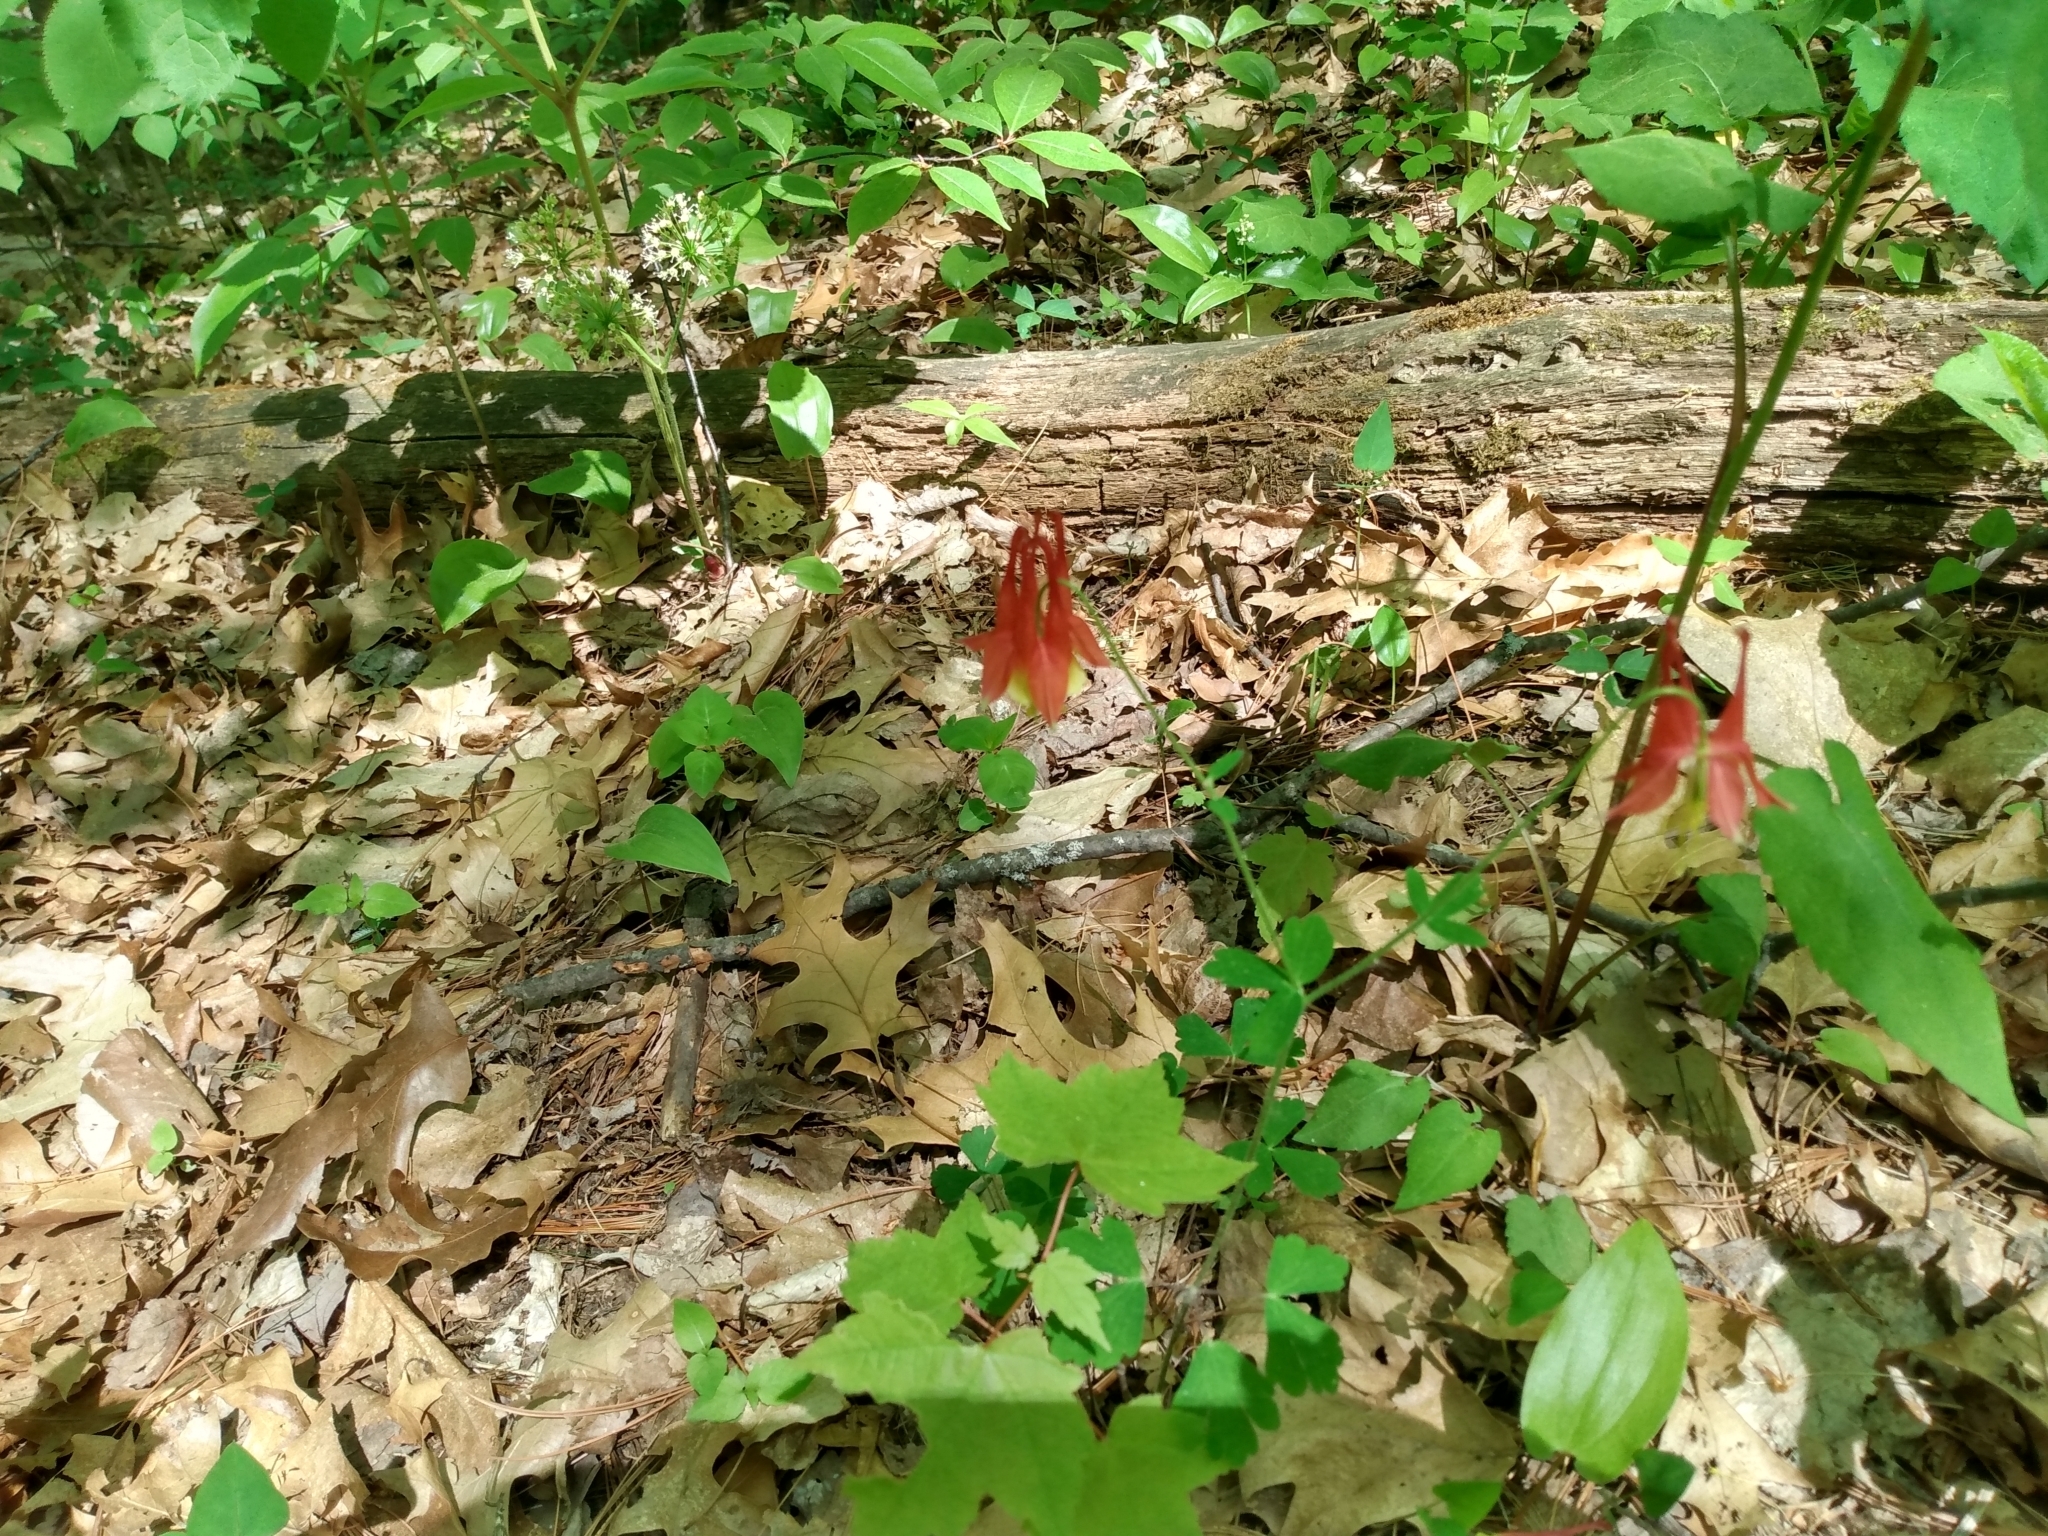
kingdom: Plantae
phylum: Tracheophyta
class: Magnoliopsida
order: Ranunculales
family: Ranunculaceae
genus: Aquilegia
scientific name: Aquilegia canadensis
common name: American columbine
